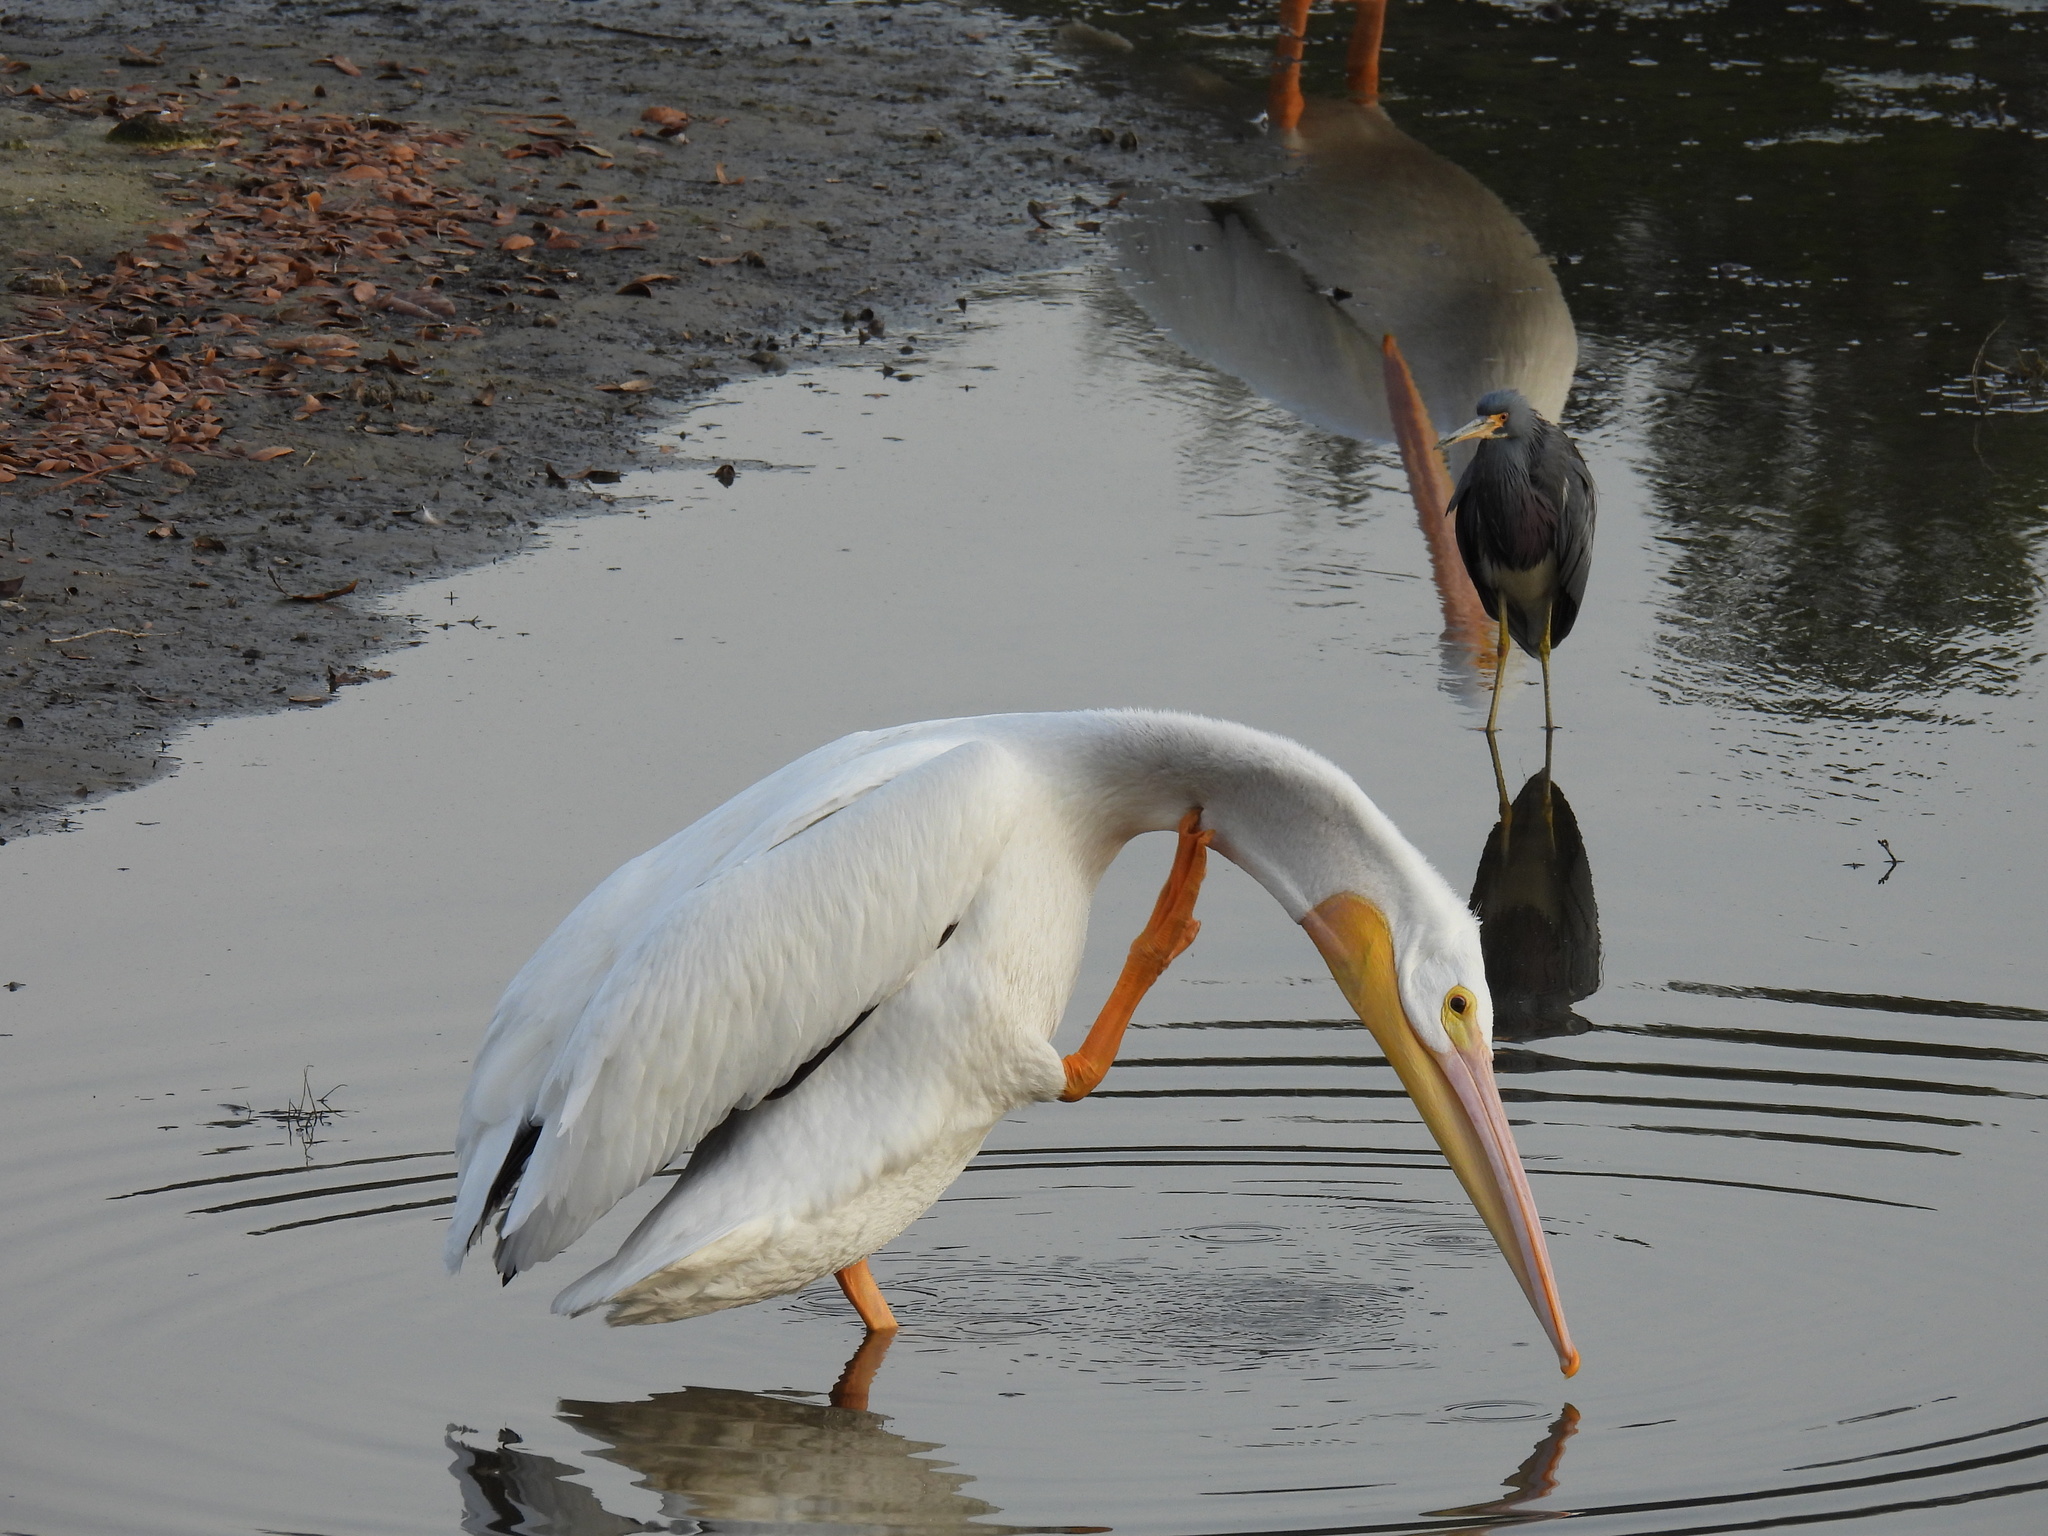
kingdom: Animalia
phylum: Chordata
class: Aves
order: Pelecaniformes
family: Pelecanidae
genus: Pelecanus
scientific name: Pelecanus erythrorhynchos
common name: American white pelican
